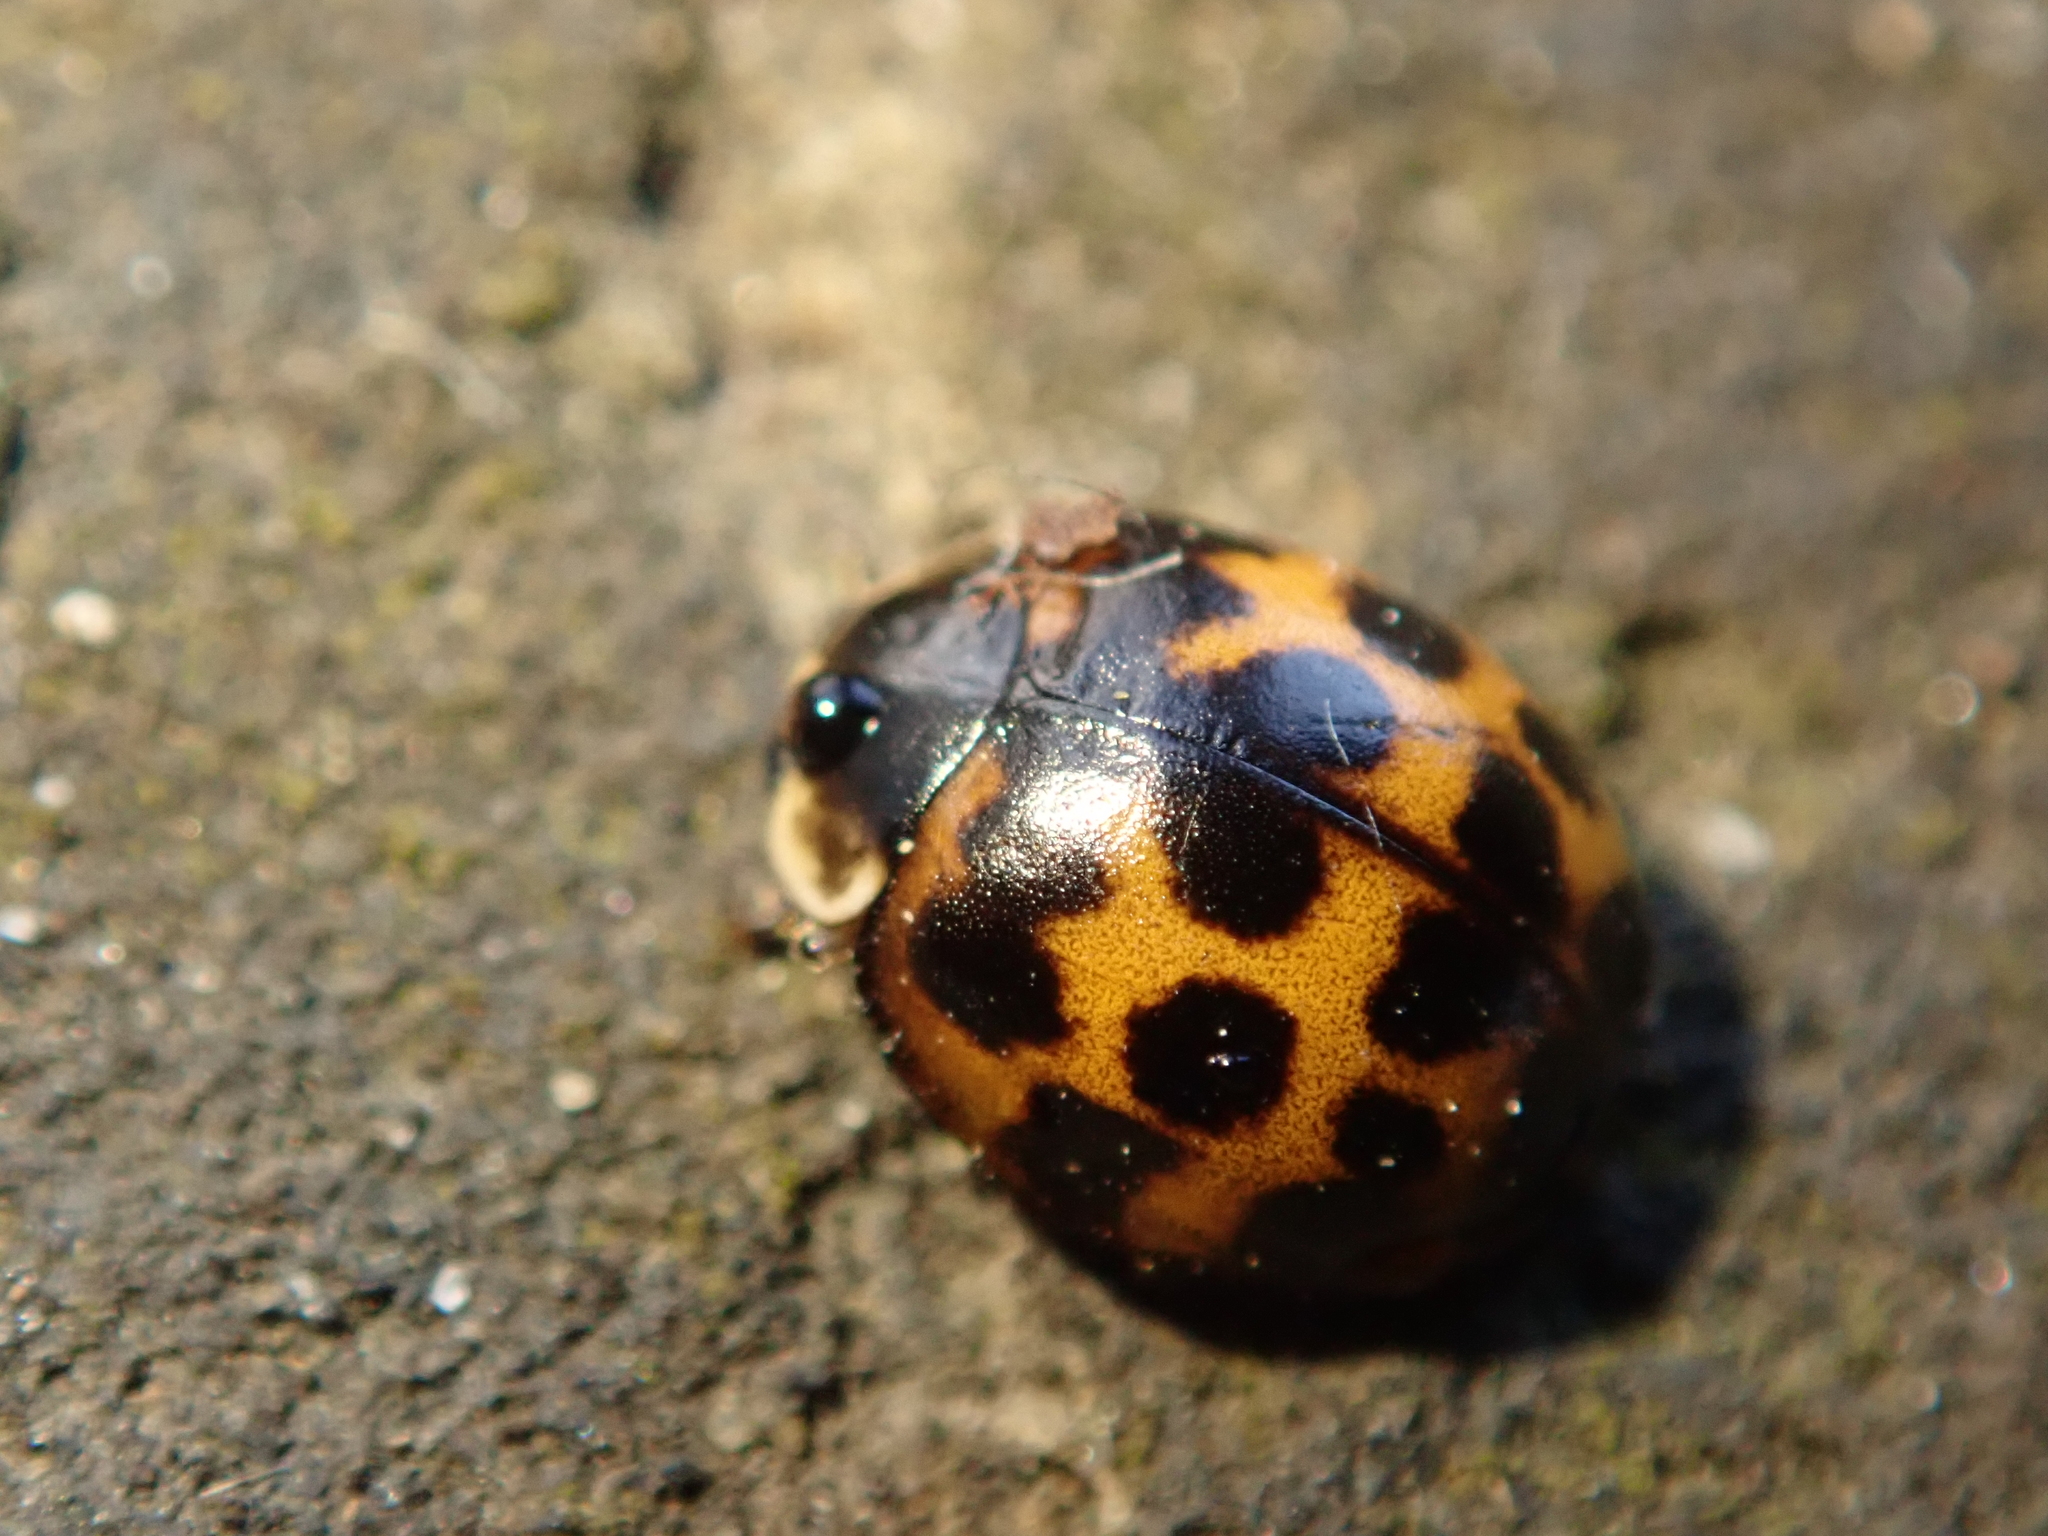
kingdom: Animalia
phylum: Arthropoda
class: Insecta
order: Coleoptera
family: Coccinellidae
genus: Harmonia
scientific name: Harmonia axyridis
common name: Harlequin ladybird
